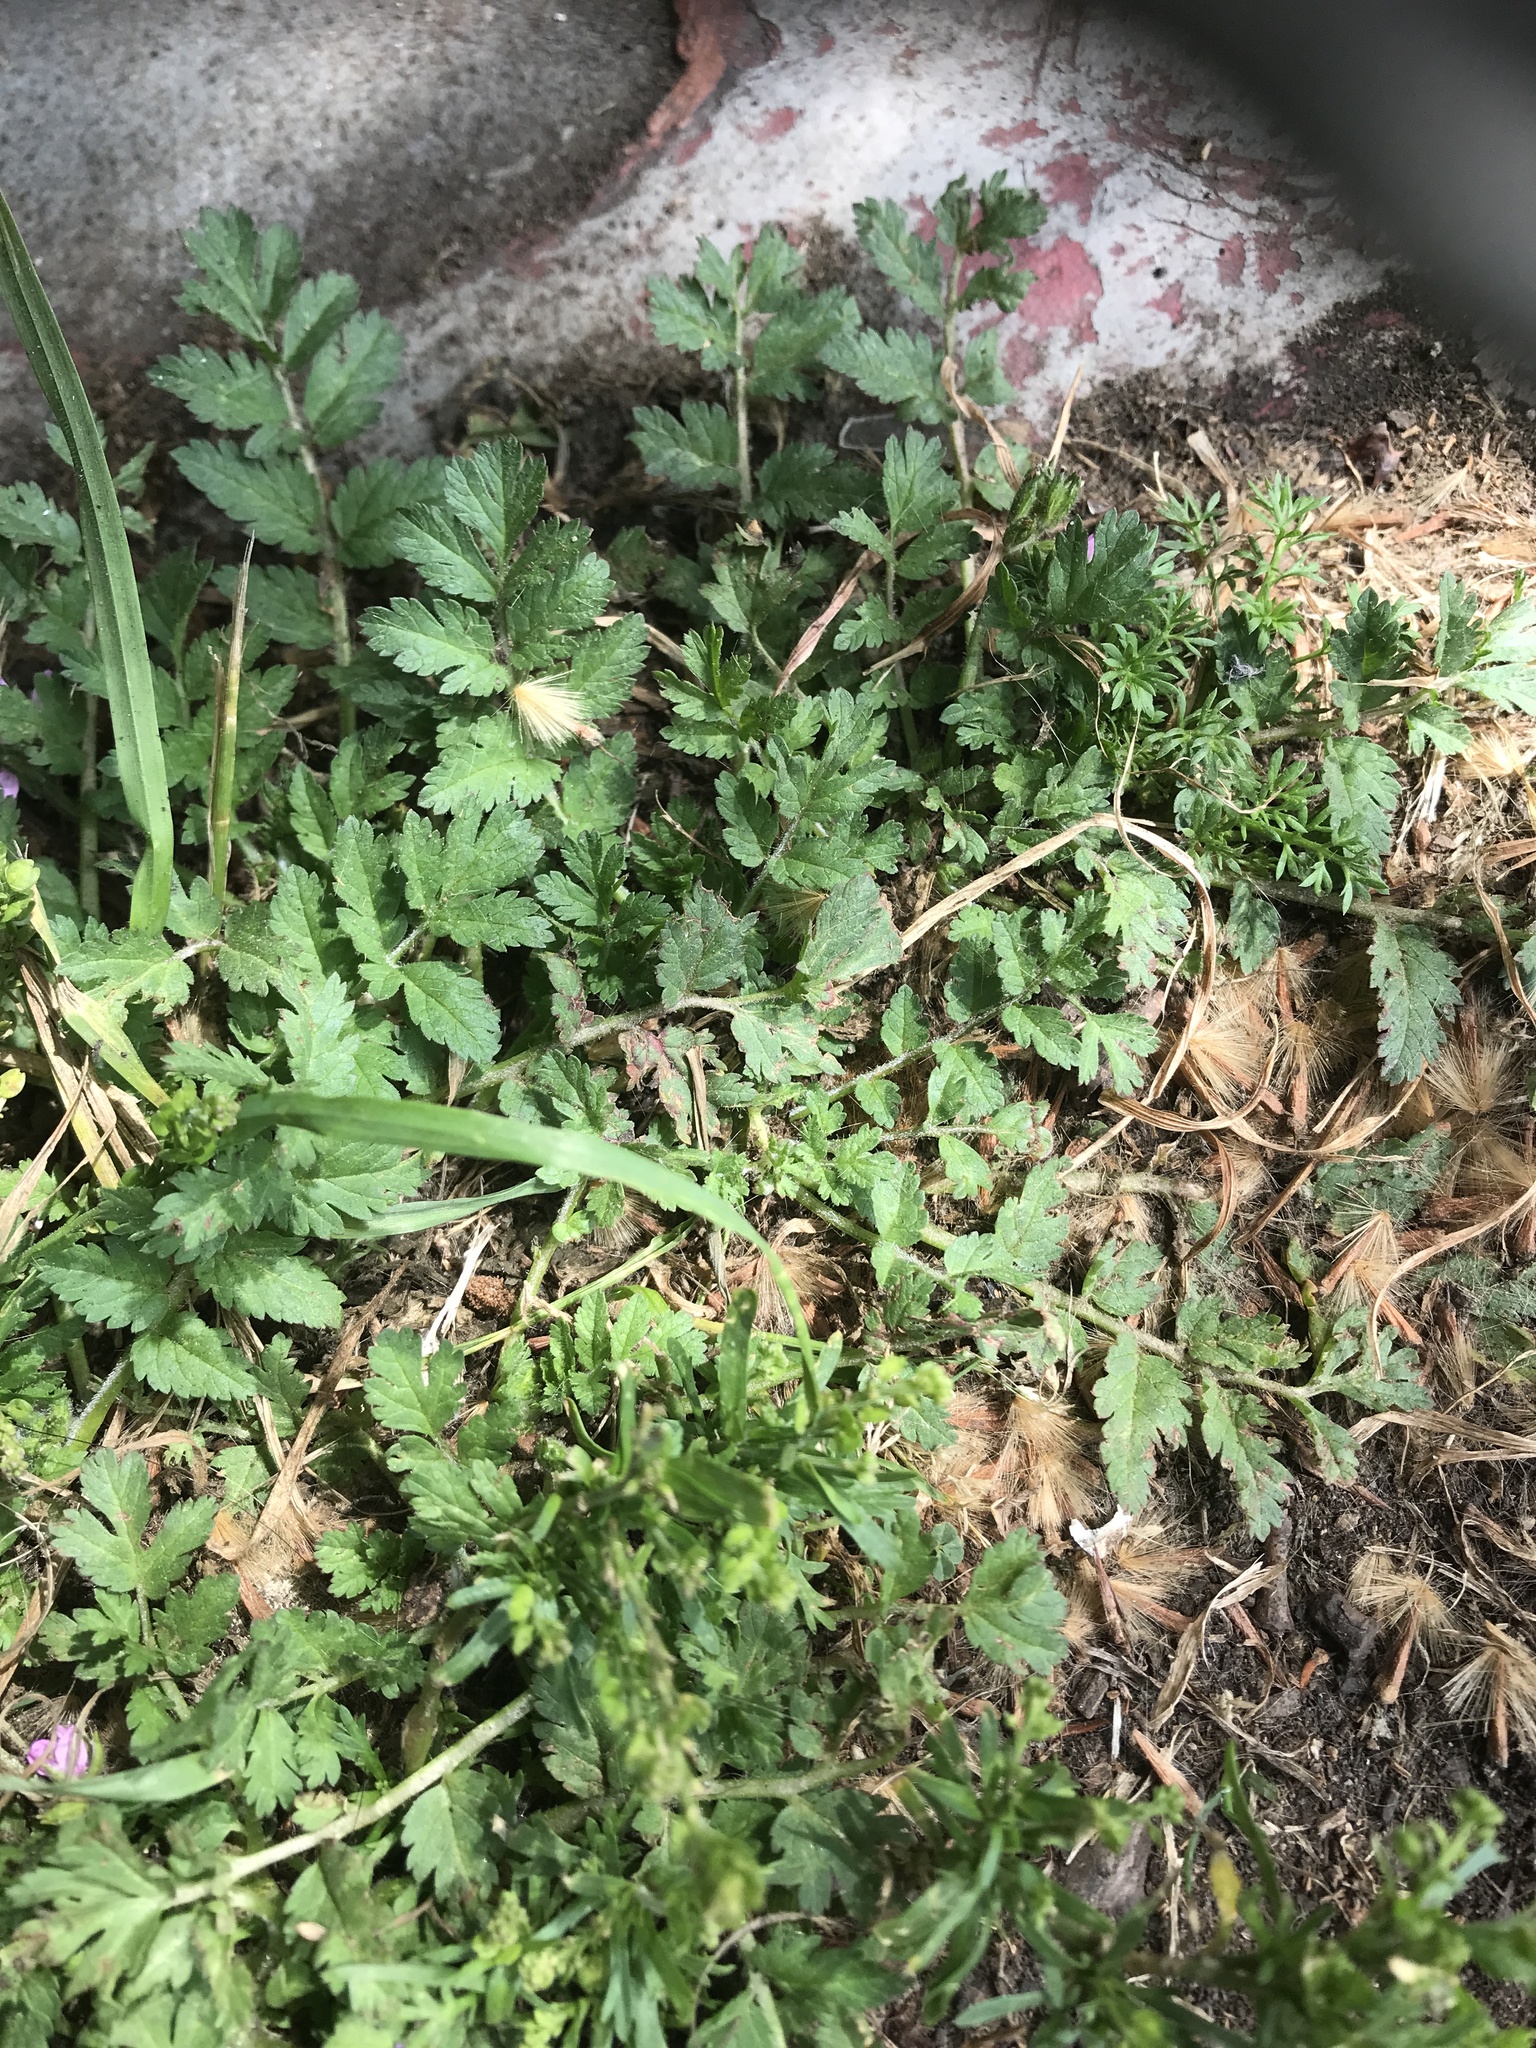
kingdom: Plantae
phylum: Tracheophyta
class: Magnoliopsida
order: Geraniales
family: Geraniaceae
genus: Erodium
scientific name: Erodium moschatum
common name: Musk stork's-bill
